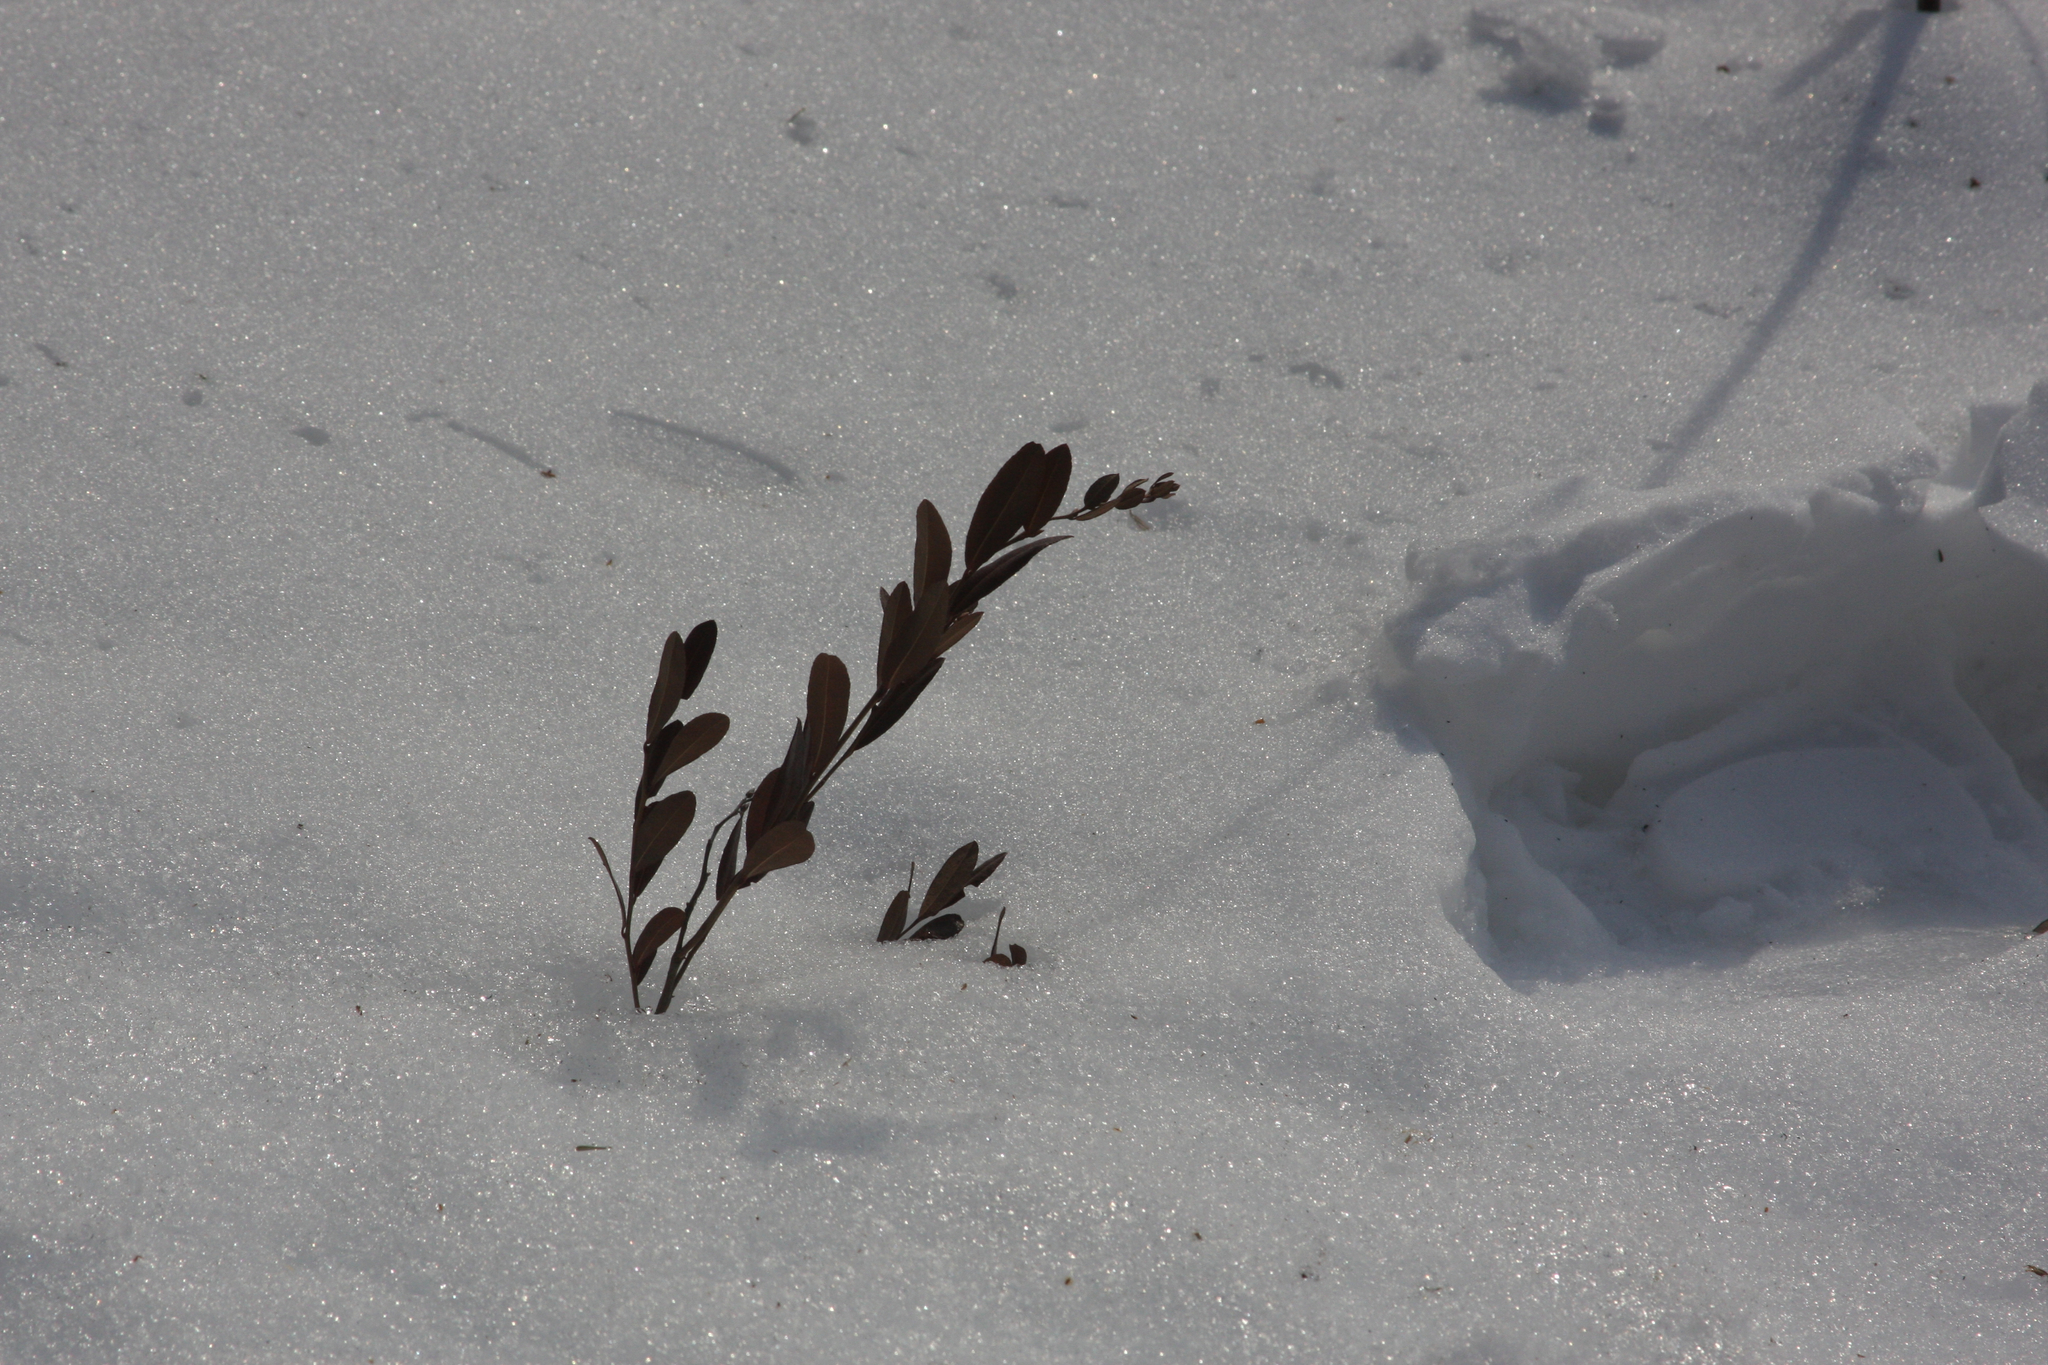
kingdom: Plantae
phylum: Tracheophyta
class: Magnoliopsida
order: Ericales
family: Ericaceae
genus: Chamaedaphne
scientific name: Chamaedaphne calyculata
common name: Leatherleaf
